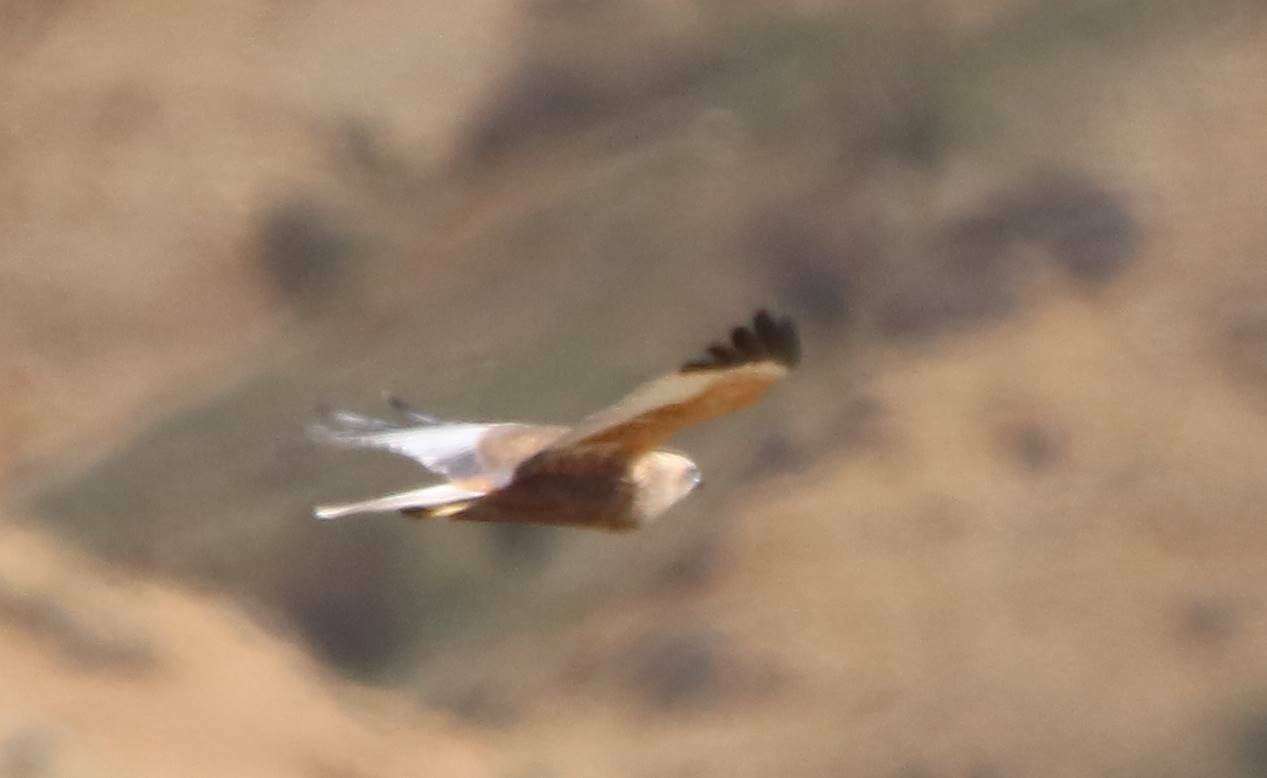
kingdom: Animalia
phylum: Chordata
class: Aves
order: Accipitriformes
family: Accipitridae
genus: Circus
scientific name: Circus aeruginosus
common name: Western marsh harrier
